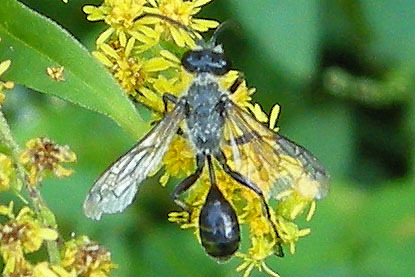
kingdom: Animalia
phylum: Arthropoda
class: Insecta
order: Hymenoptera
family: Sphecidae
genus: Isodontia
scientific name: Isodontia mexicana
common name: Mud dauber
